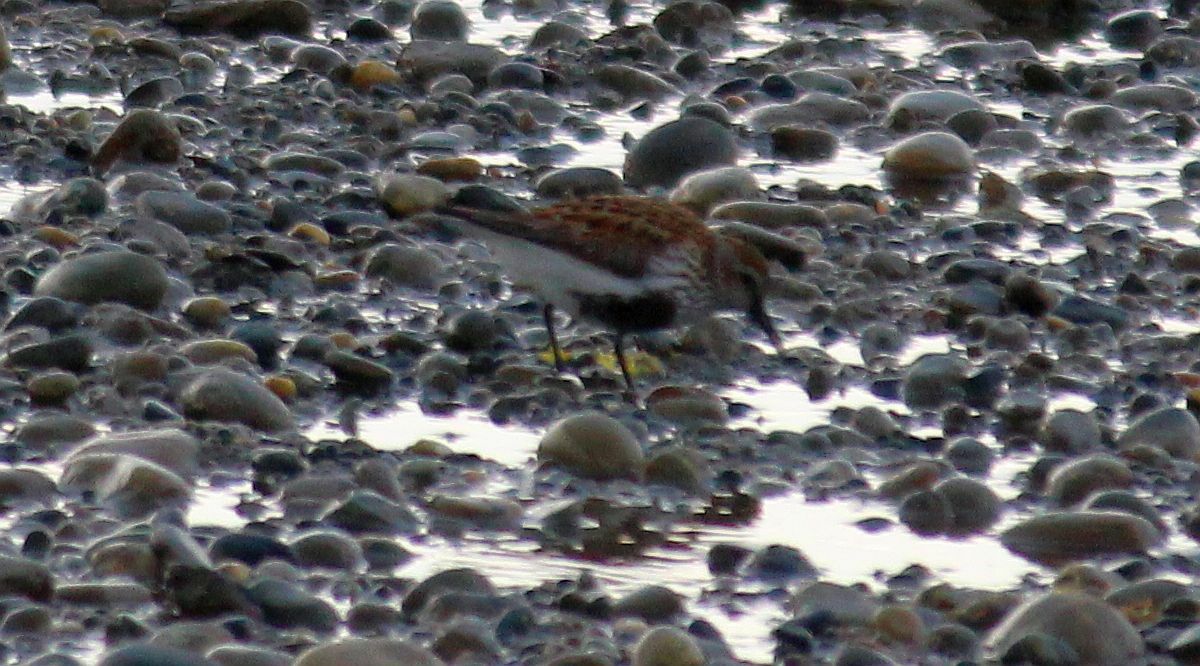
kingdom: Animalia
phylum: Chordata
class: Aves
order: Charadriiformes
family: Scolopacidae
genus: Calidris
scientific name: Calidris alpina
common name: Dunlin
